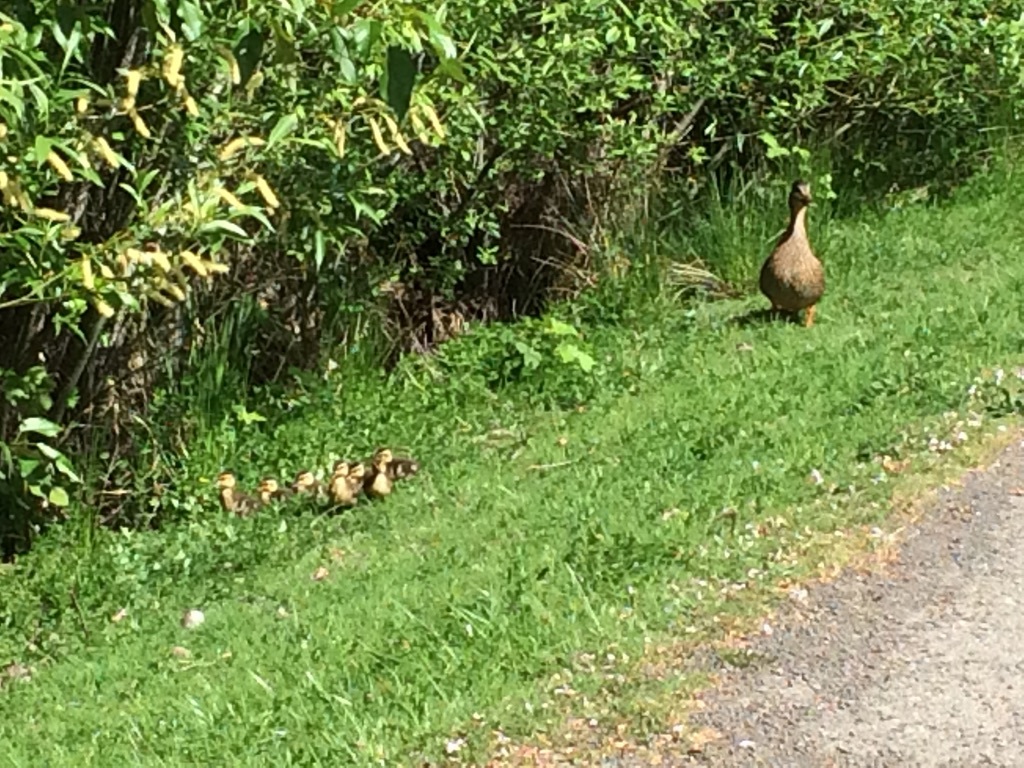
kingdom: Animalia
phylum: Chordata
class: Aves
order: Anseriformes
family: Anatidae
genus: Anas
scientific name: Anas platyrhynchos
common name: Mallard
